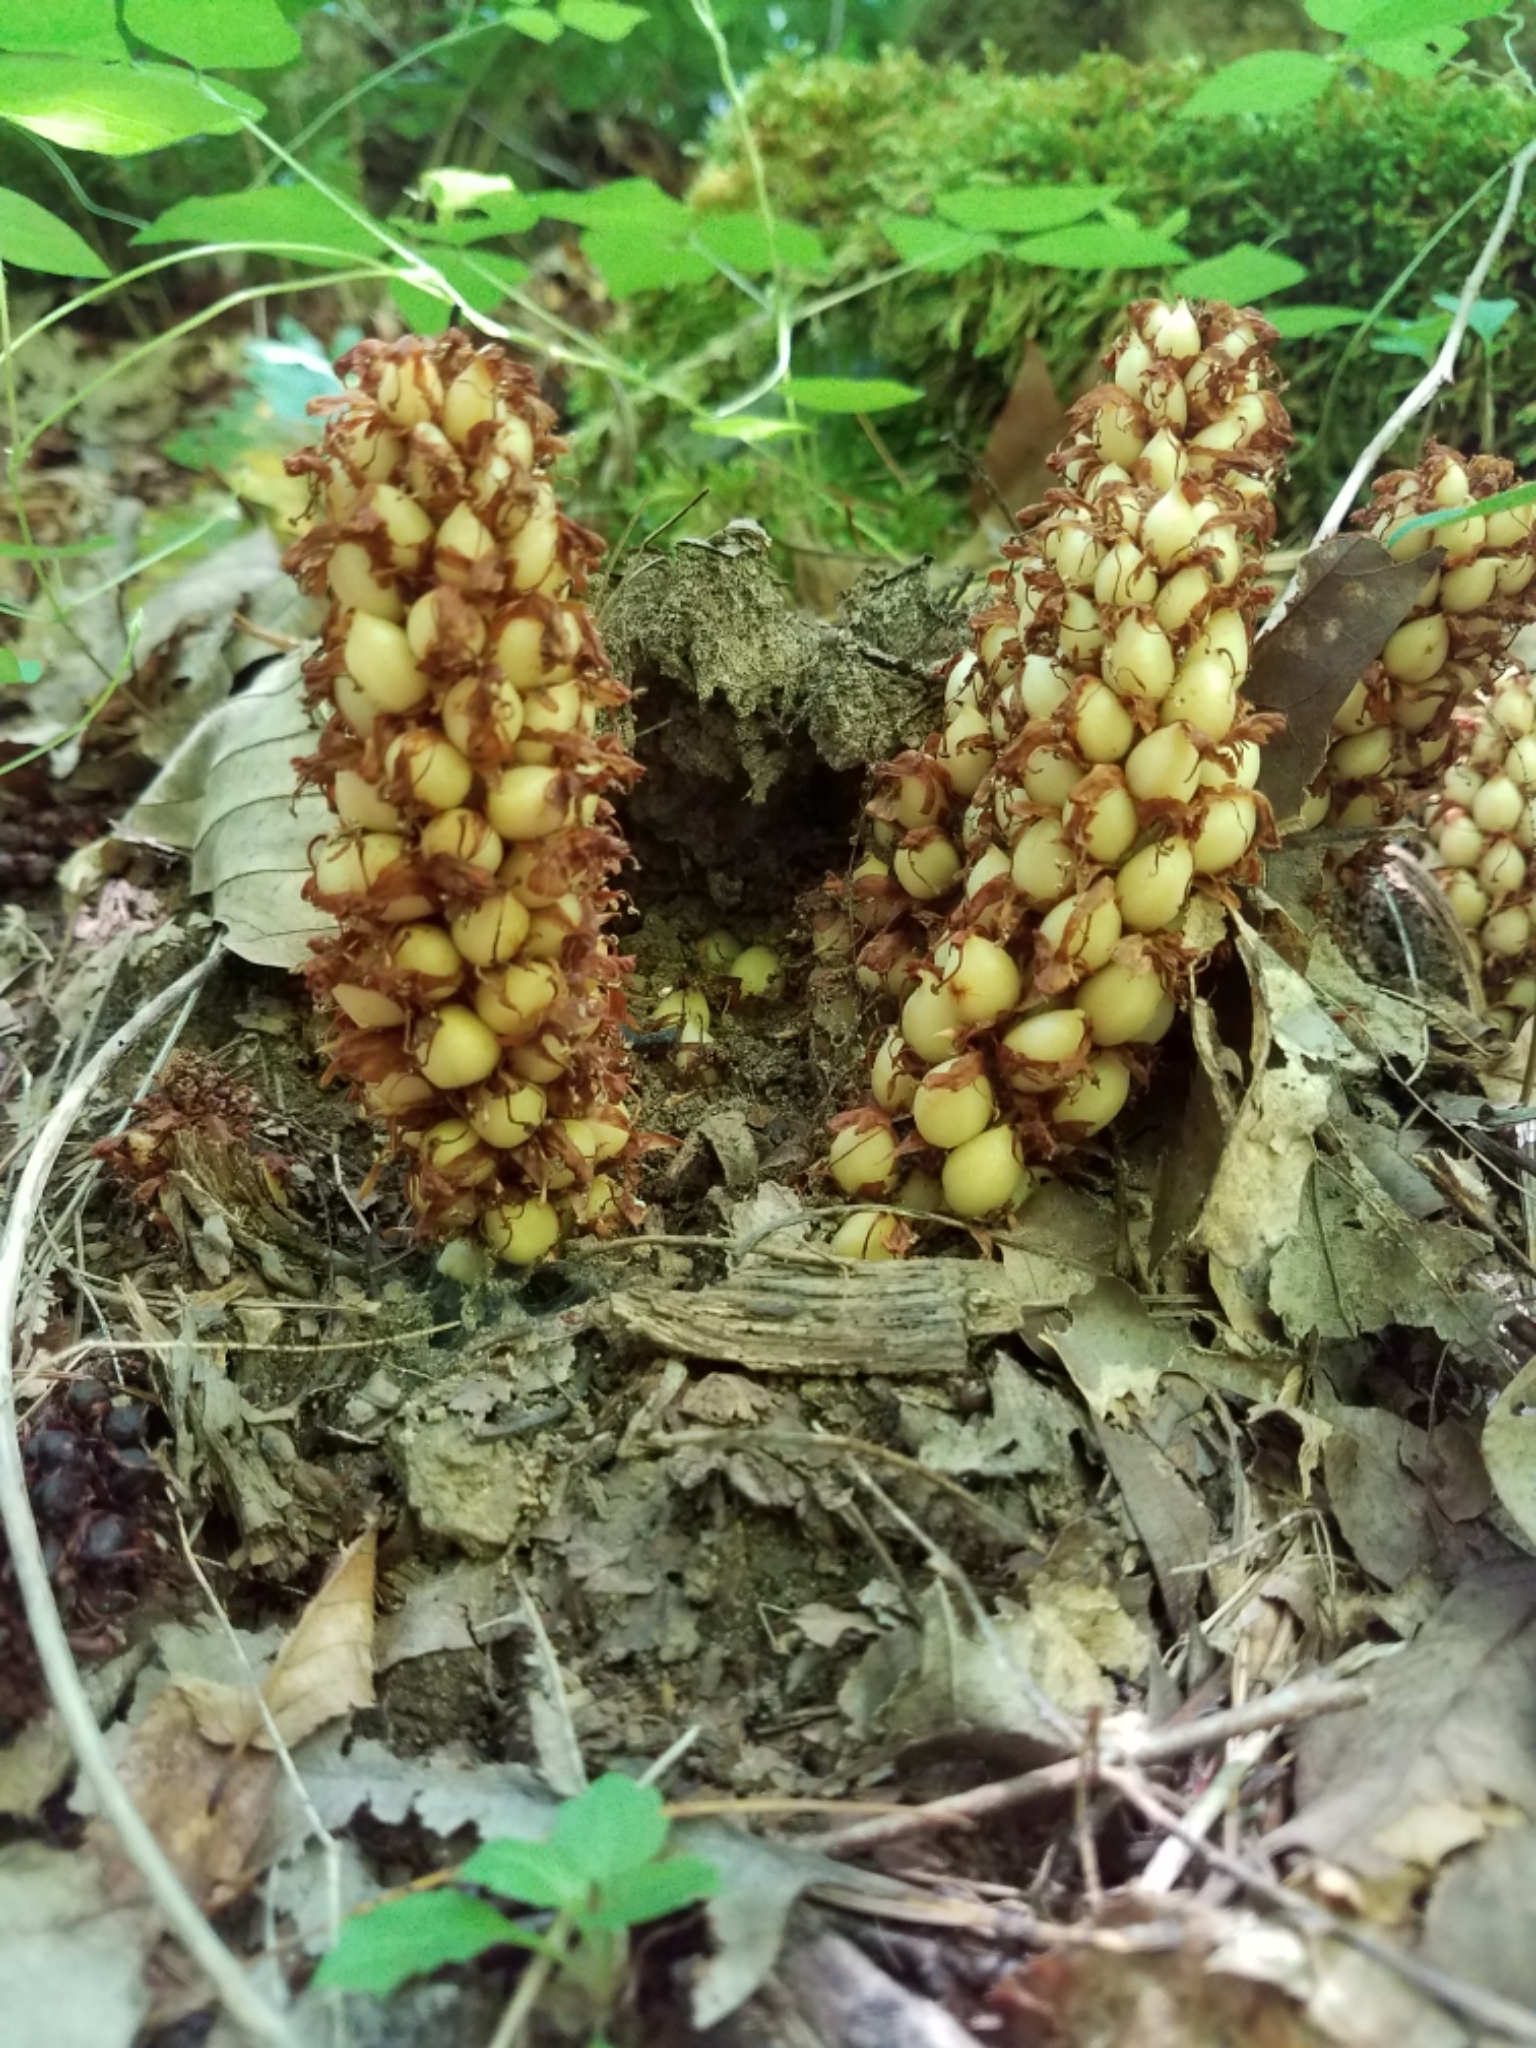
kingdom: Plantae
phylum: Tracheophyta
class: Magnoliopsida
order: Lamiales
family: Orobanchaceae
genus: Conopholis
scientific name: Conopholis americana
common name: American cancer-root
